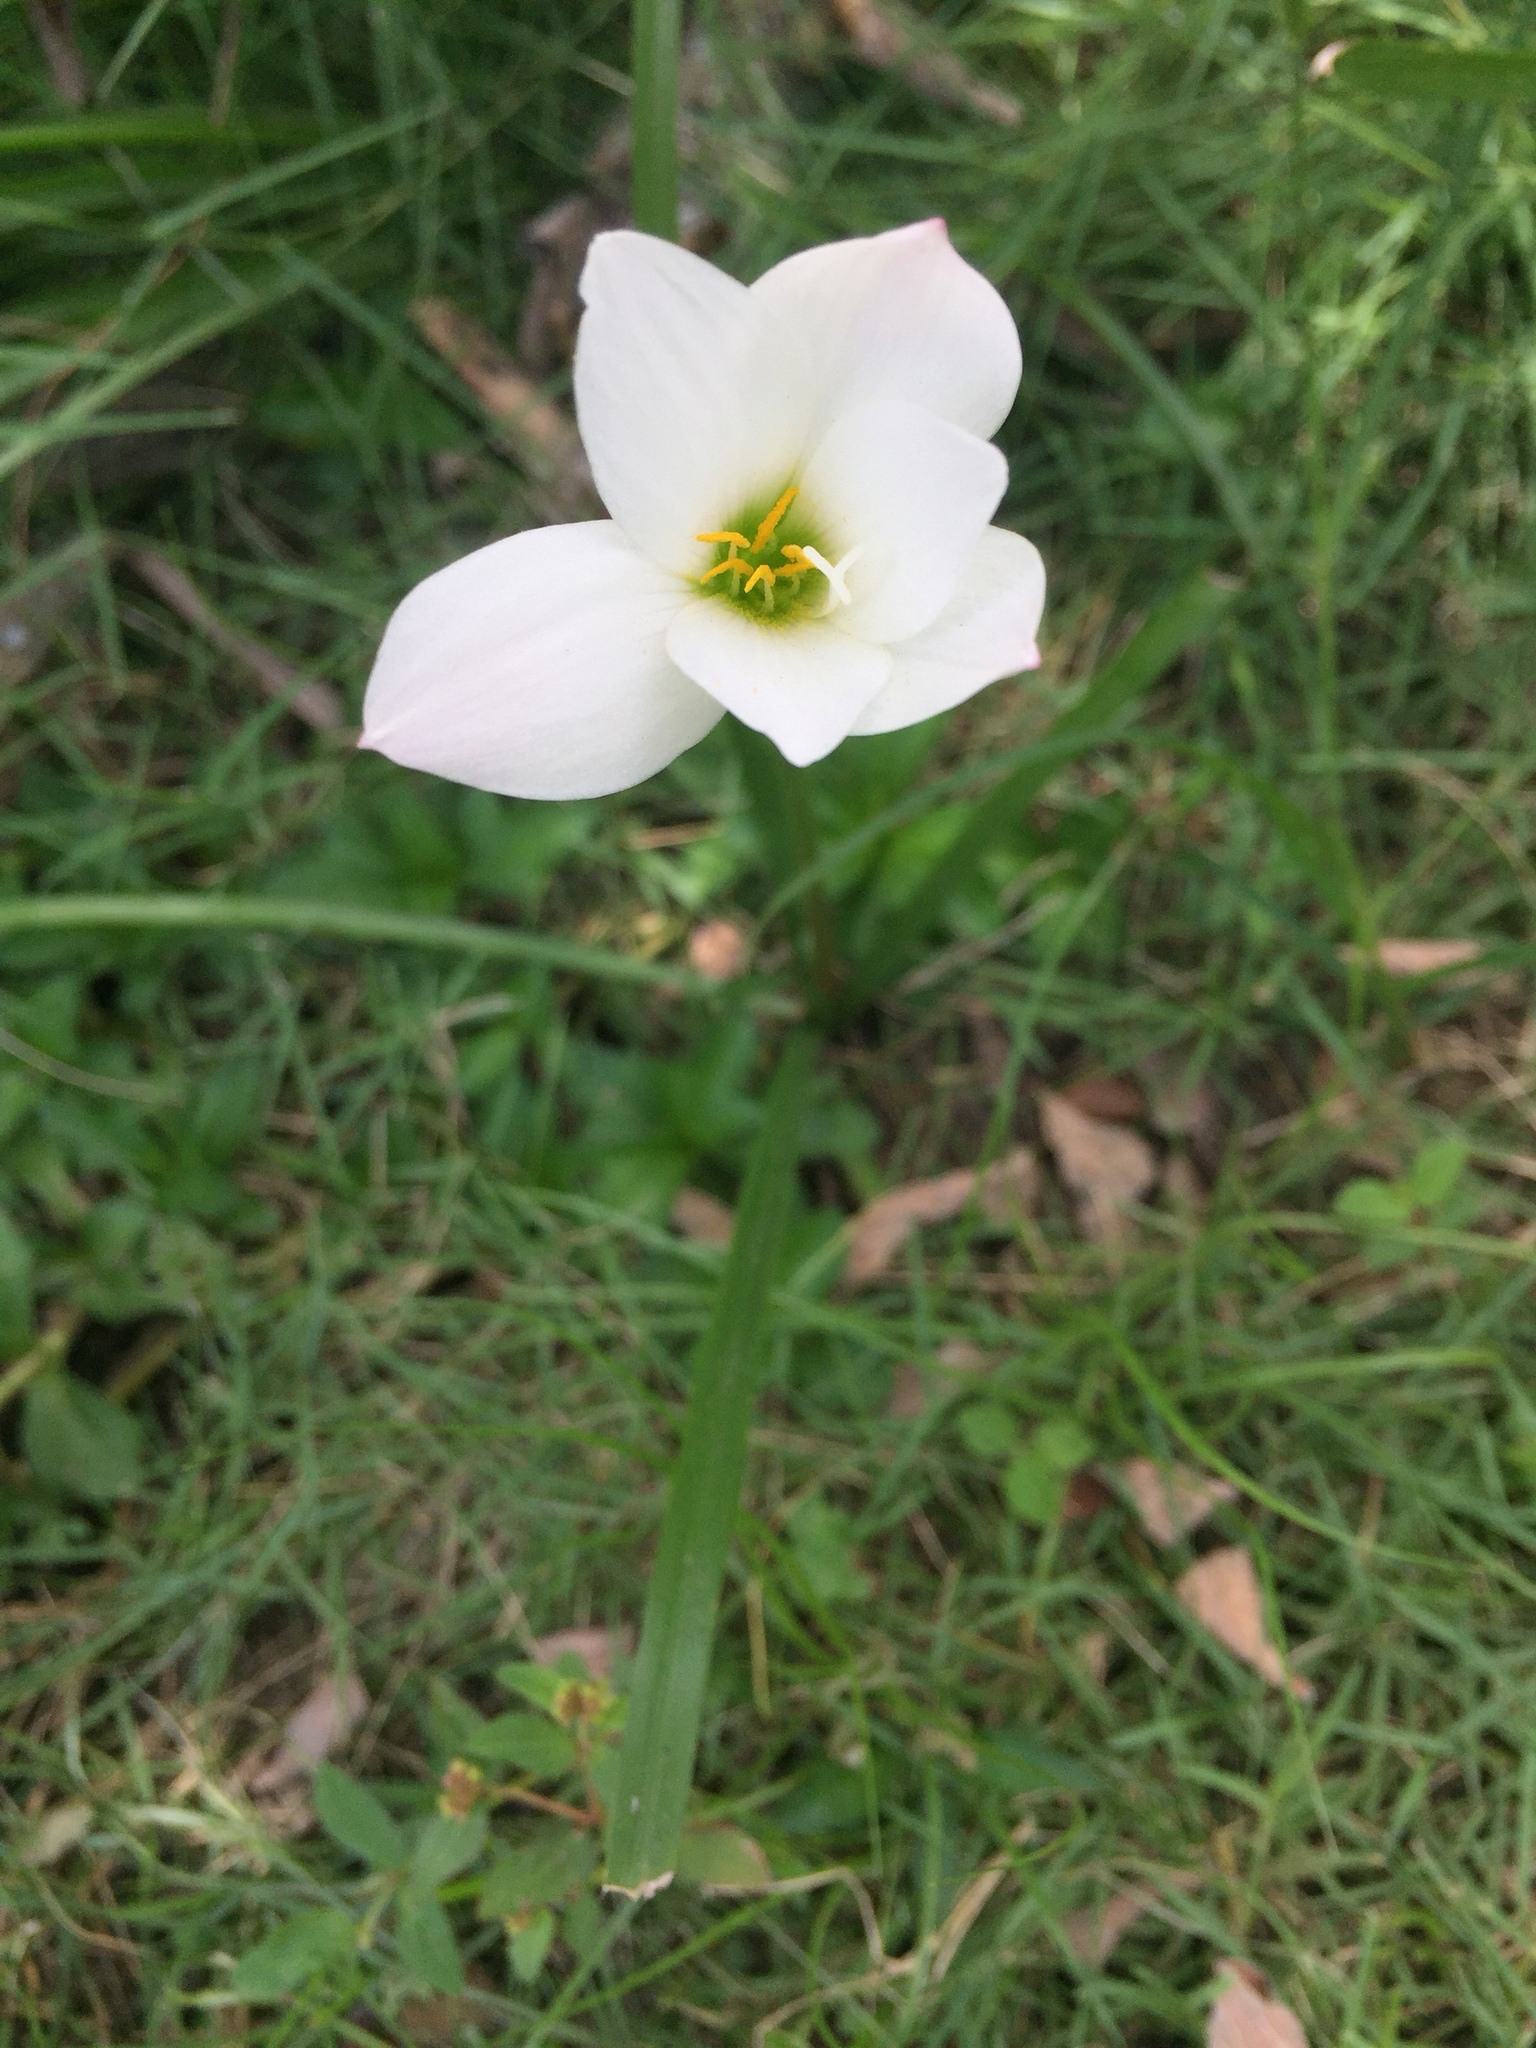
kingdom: Plantae
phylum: Tracheophyta
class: Liliopsida
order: Asparagales
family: Amaryllidaceae
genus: Zephyranthes
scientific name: Zephyranthes atamasco
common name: Atamasco lily
